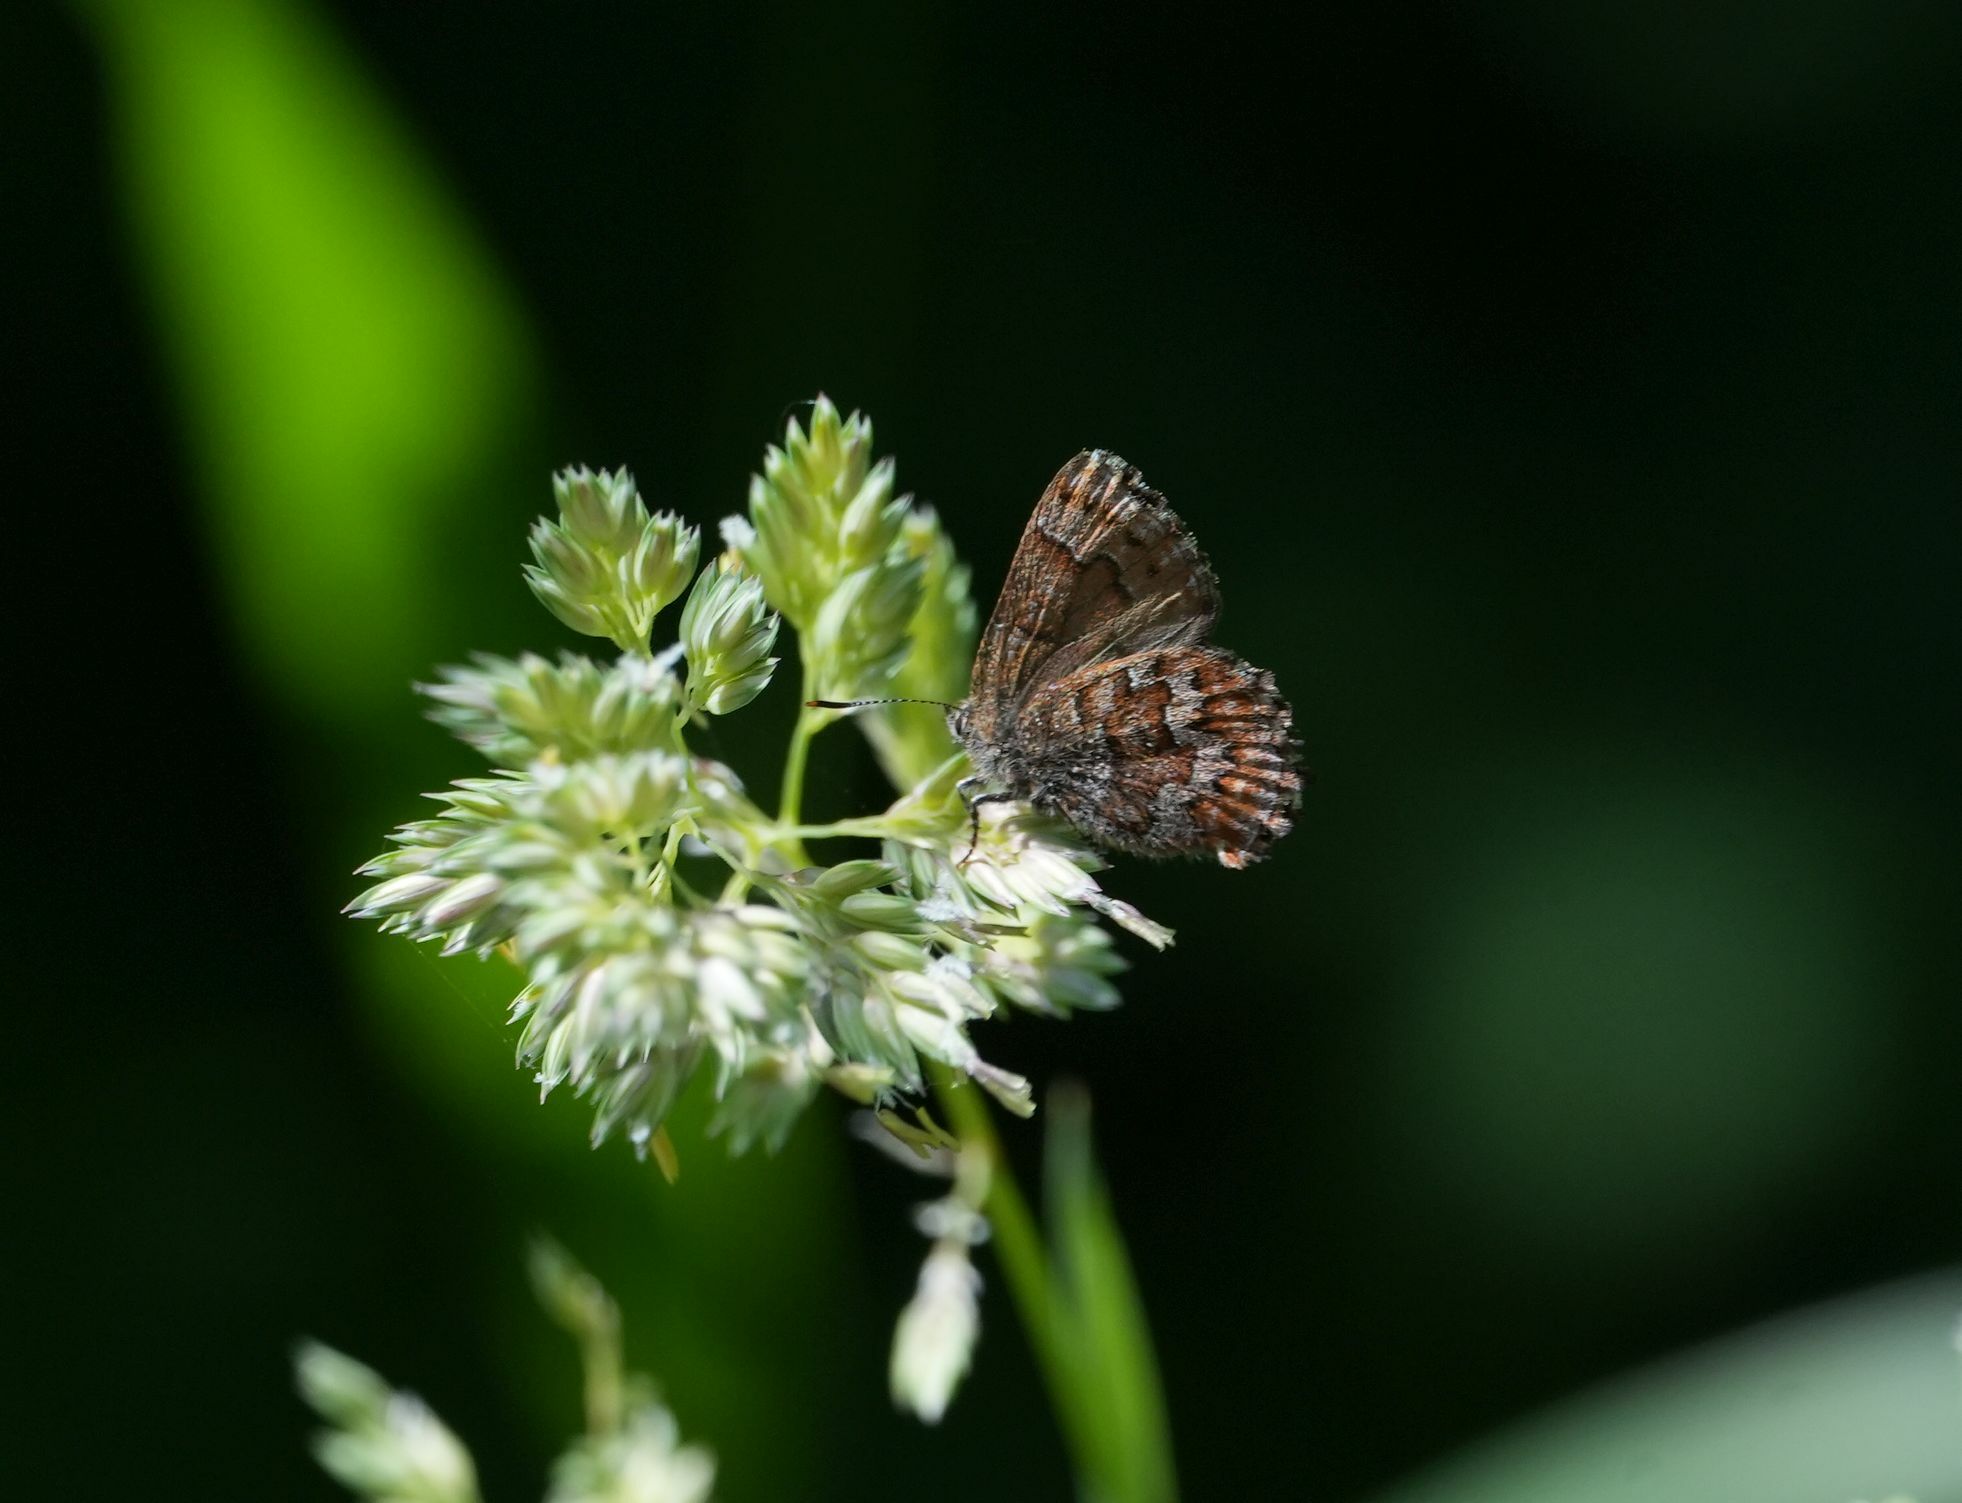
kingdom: Animalia
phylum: Arthropoda
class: Insecta
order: Lepidoptera
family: Lycaenidae
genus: Incisalia
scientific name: Incisalia niphon
